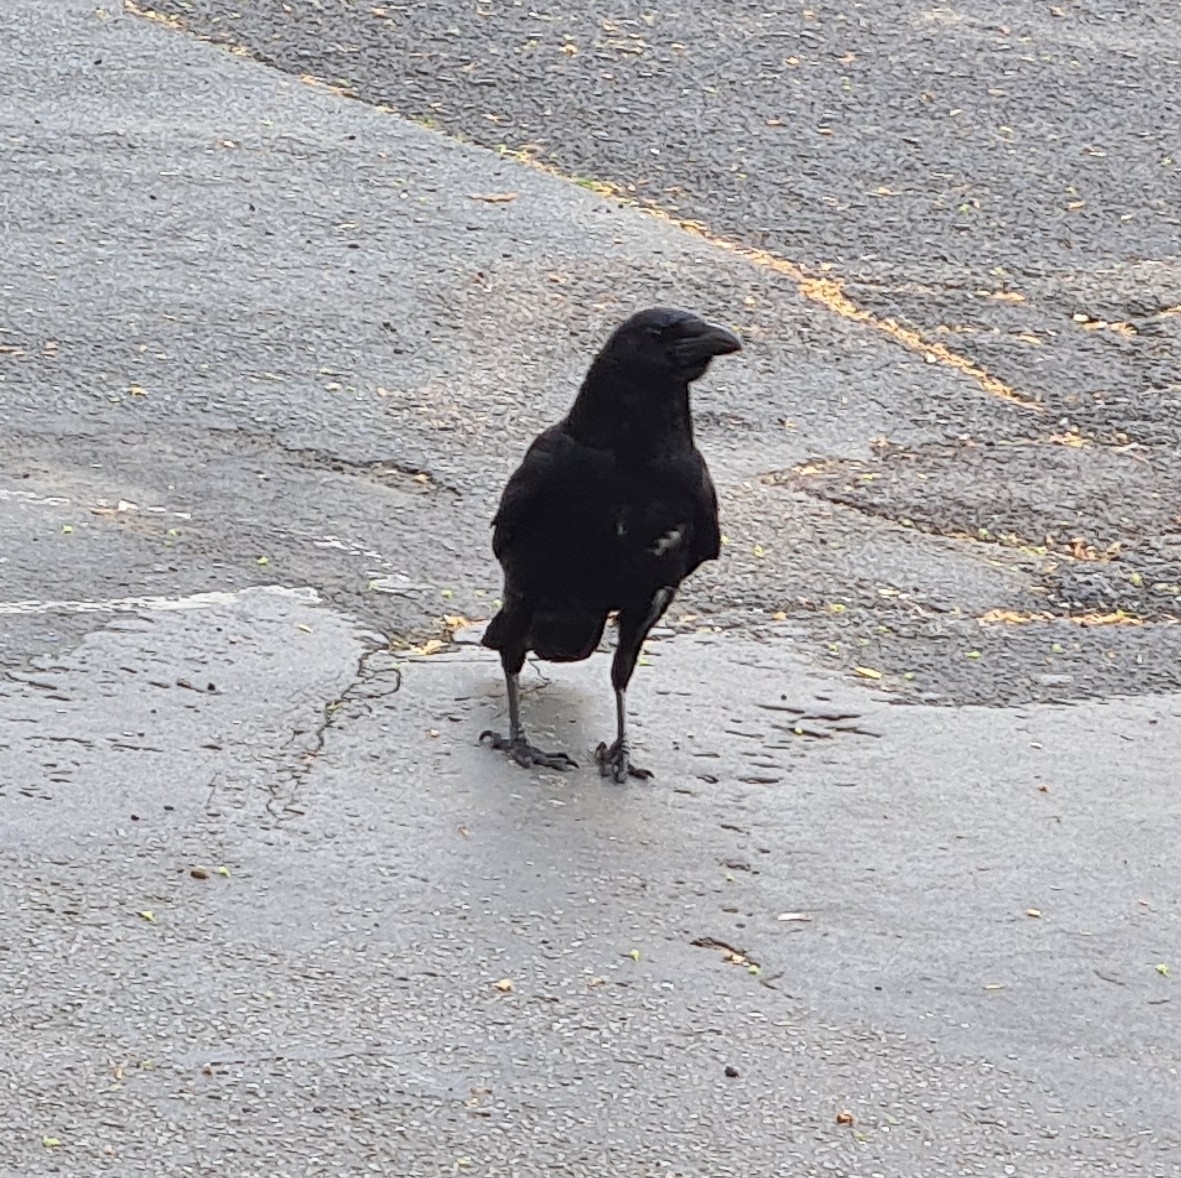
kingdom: Animalia
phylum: Chordata
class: Aves
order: Passeriformes
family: Corvidae
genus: Corvus
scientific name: Corvus corone
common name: Carrion crow
